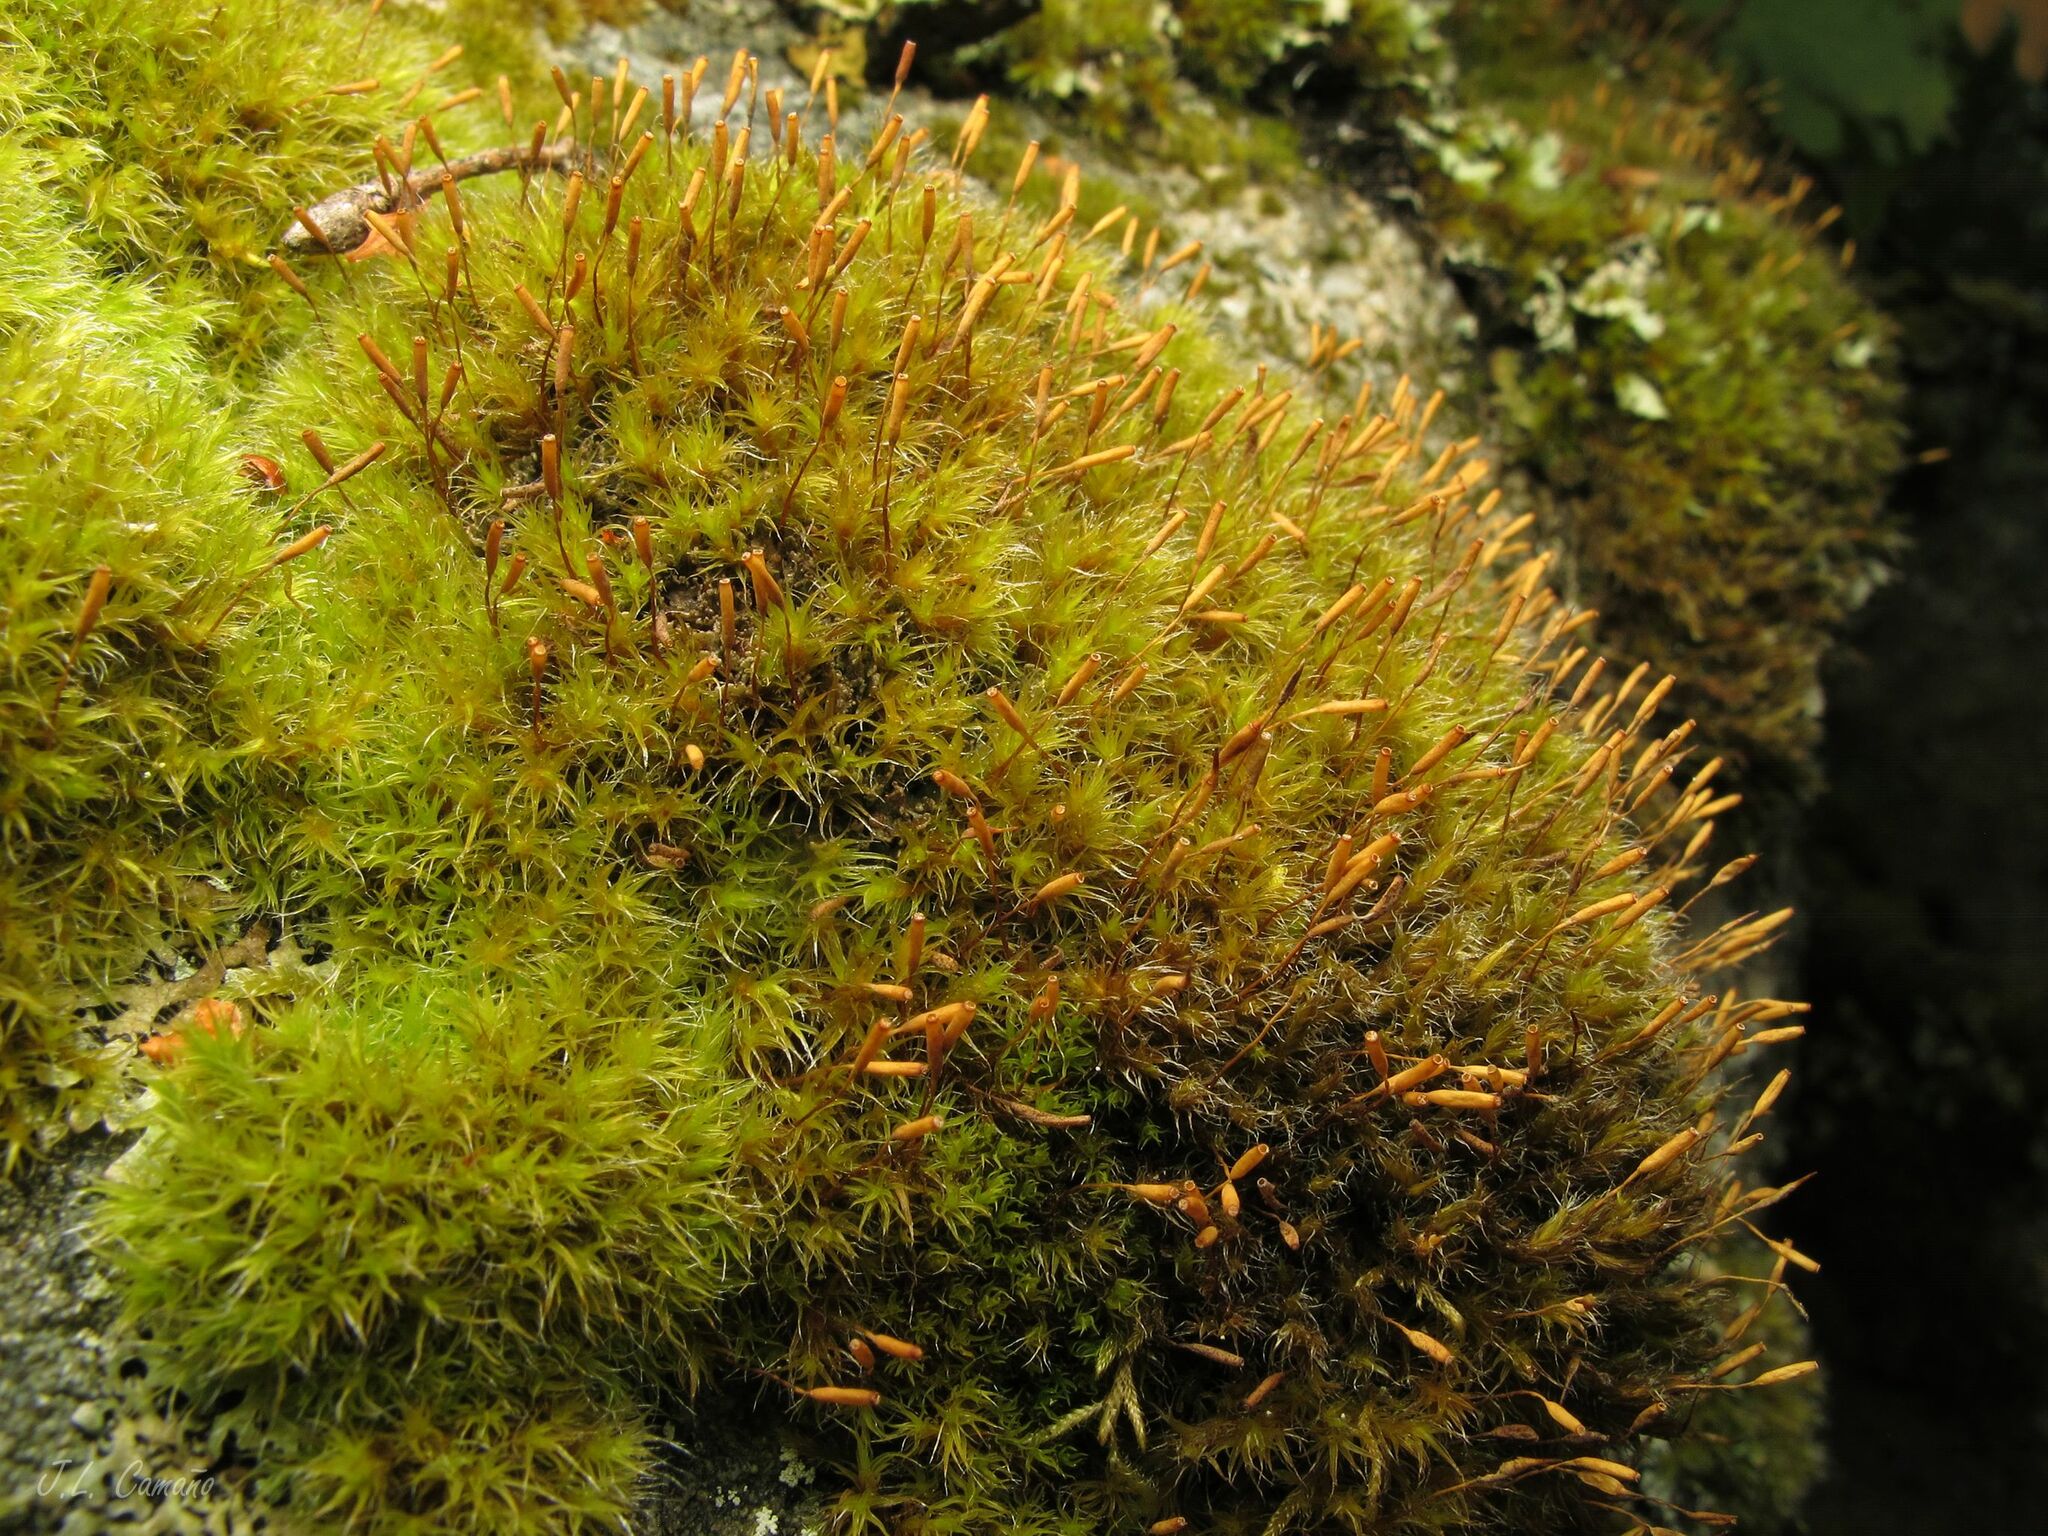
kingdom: Plantae
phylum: Bryophyta
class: Bryopsida
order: Grimmiales
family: Grimmiaceae
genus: Bucklandiella
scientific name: Bucklandiella heterosticha
